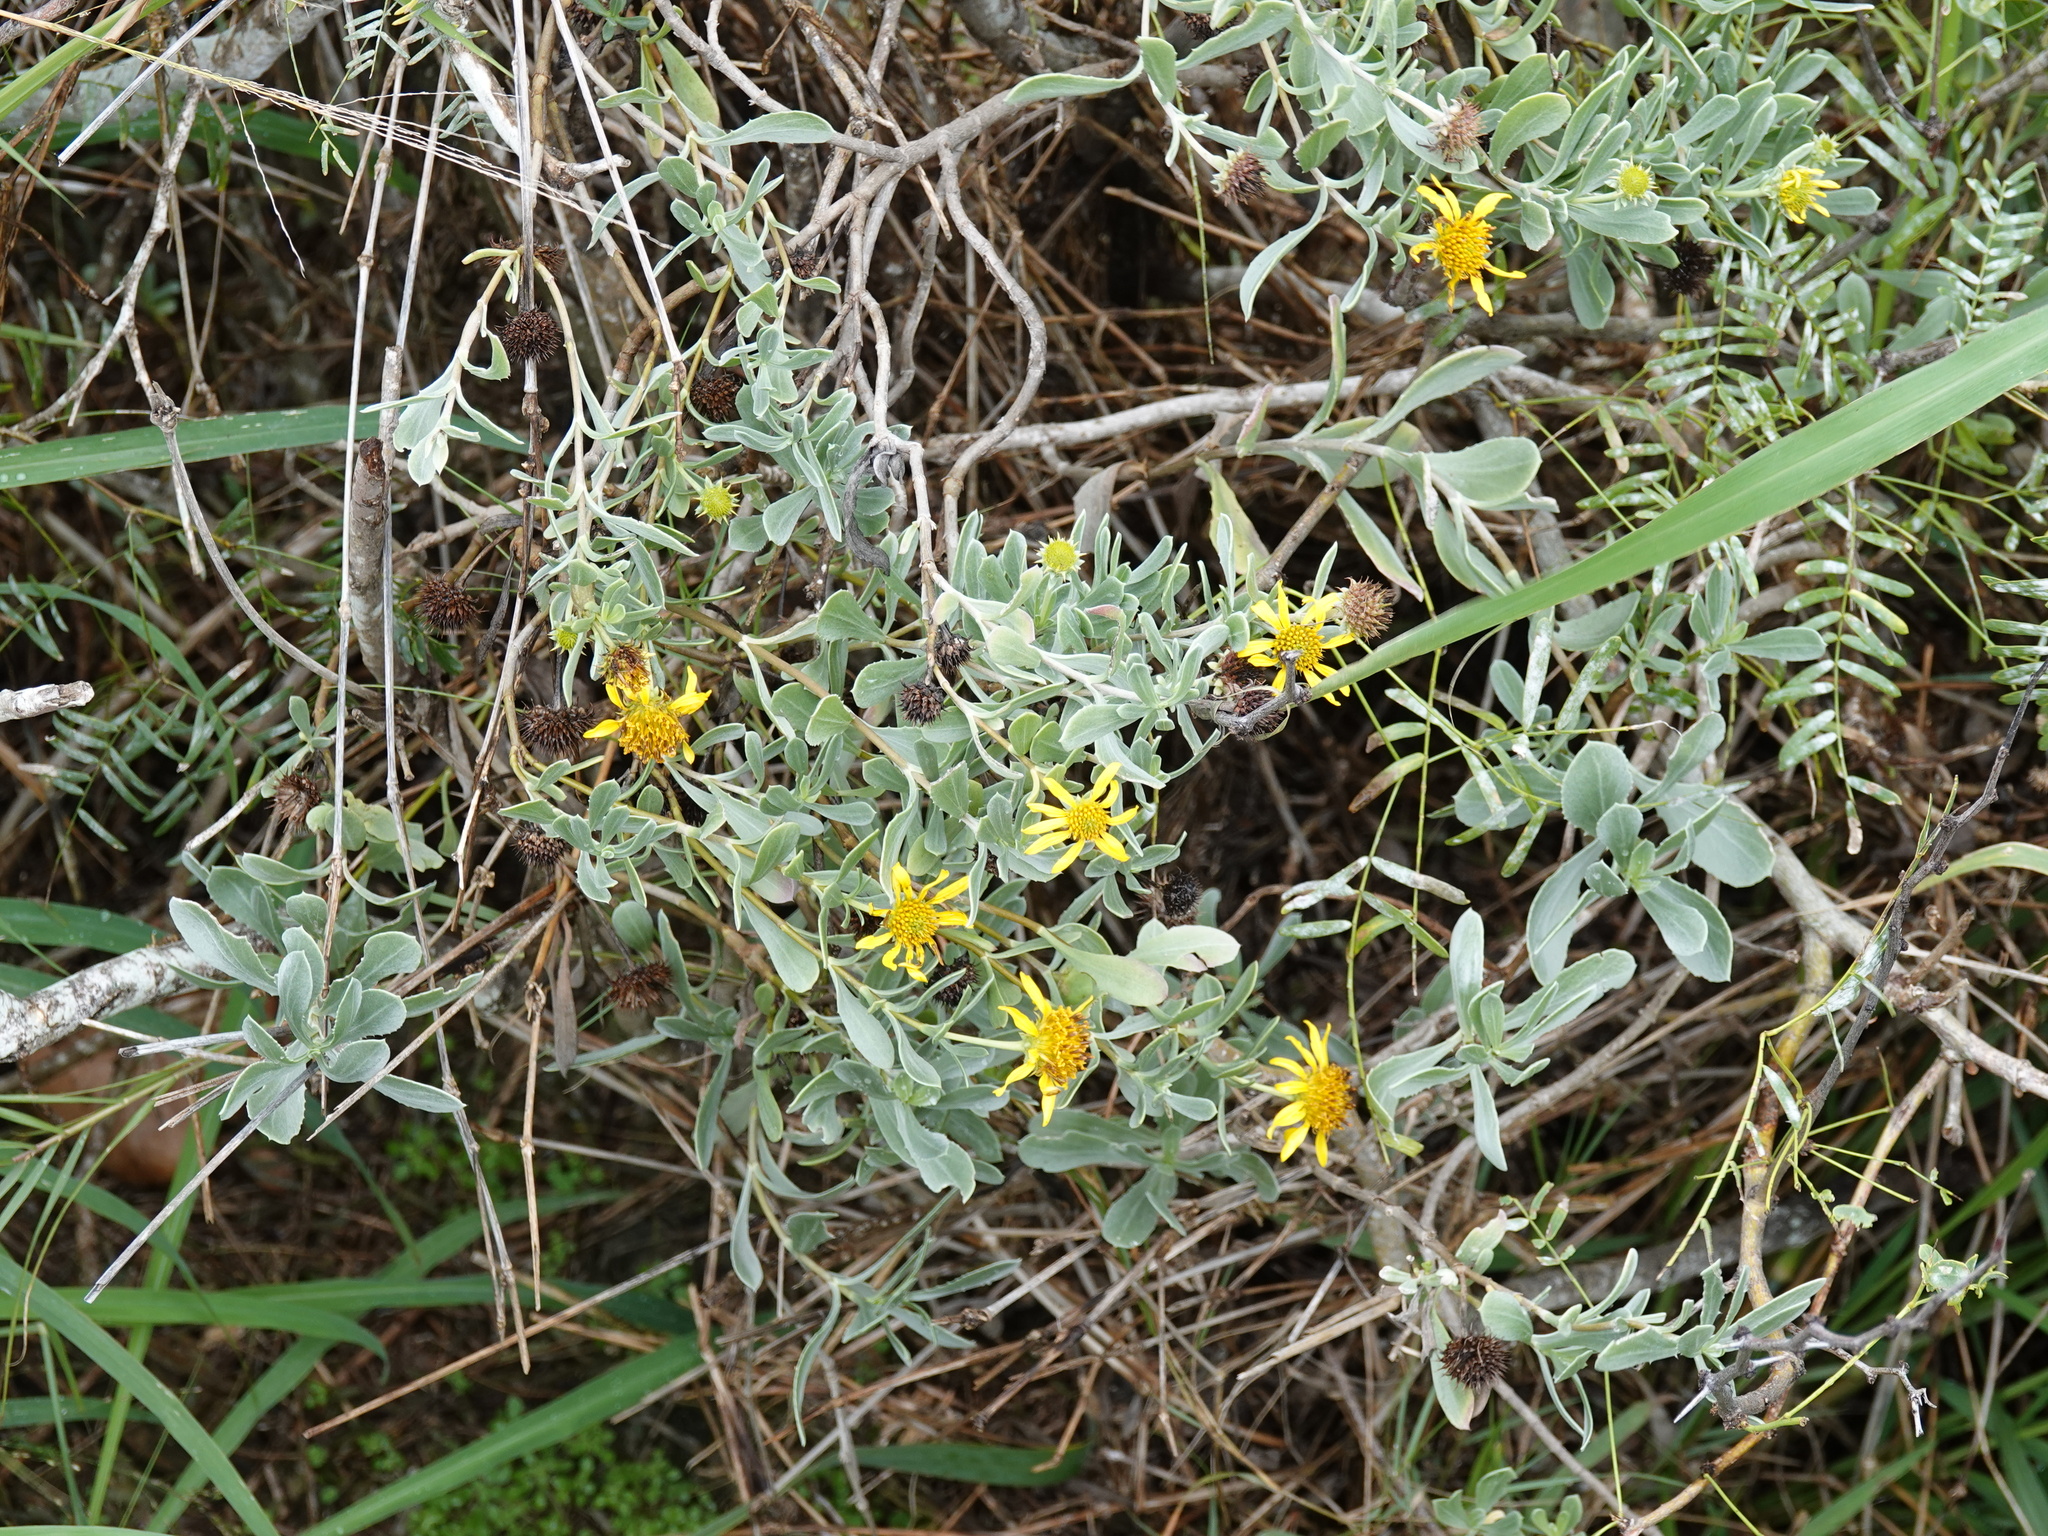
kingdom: Plantae
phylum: Tracheophyta
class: Magnoliopsida
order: Asterales
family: Asteraceae
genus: Borrichia
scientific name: Borrichia frutescens
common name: Sea oxeye
